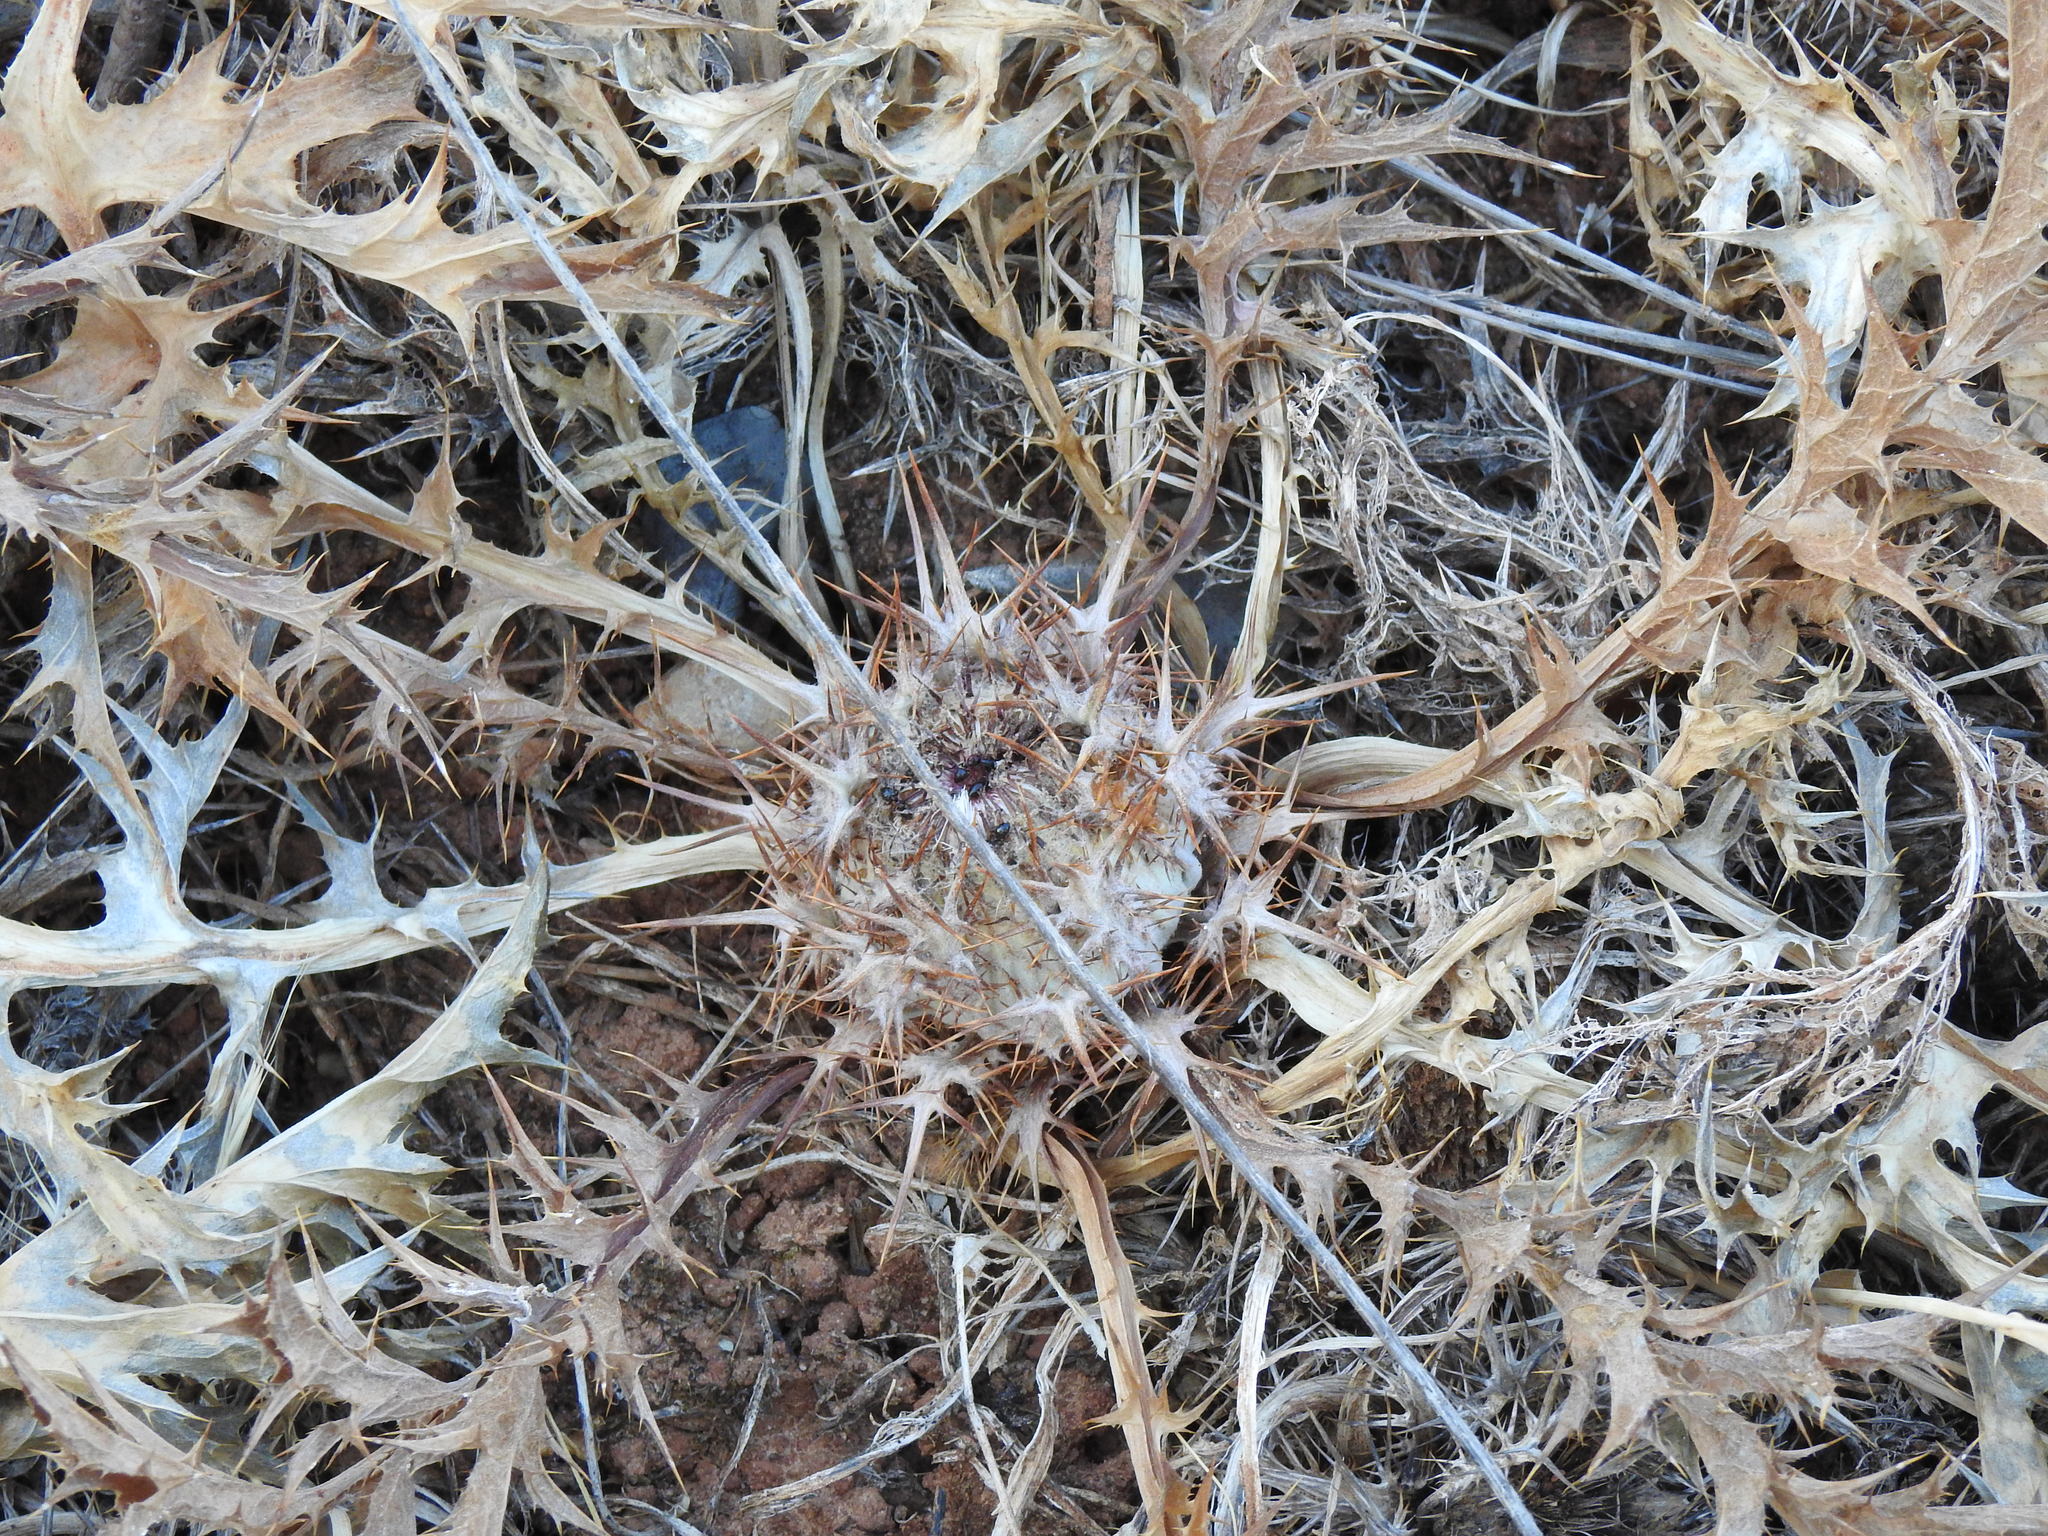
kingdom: Plantae
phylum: Tracheophyta
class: Magnoliopsida
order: Asterales
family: Asteraceae
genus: Chamaeleon
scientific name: Chamaeleon gummifer
